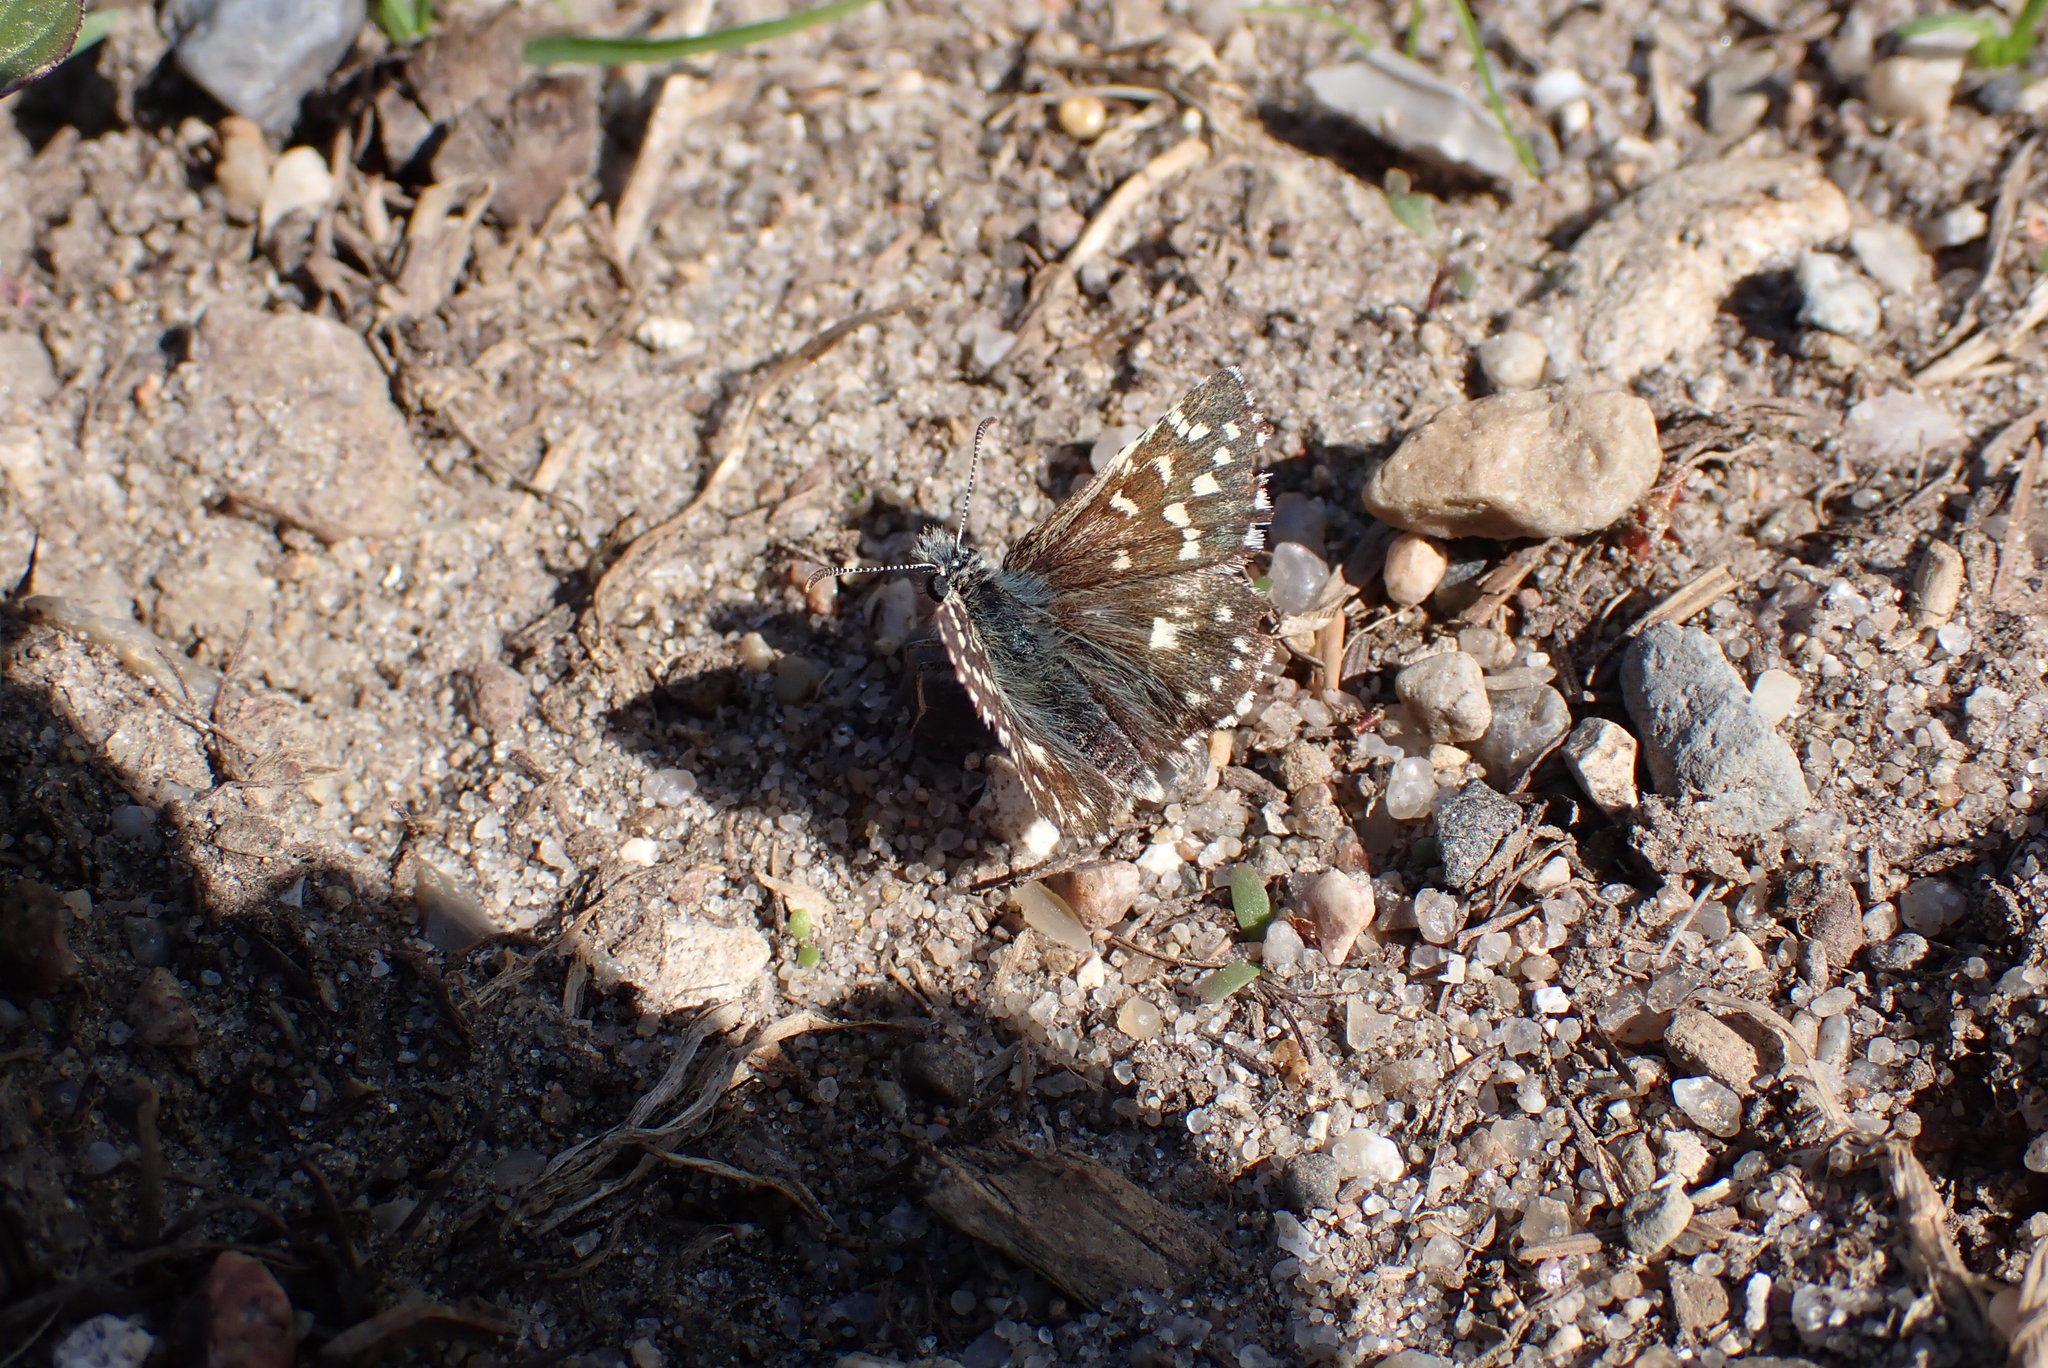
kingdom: Animalia
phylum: Arthropoda
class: Insecta
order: Lepidoptera
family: Hesperiidae
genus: Pyrgus
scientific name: Pyrgus malvae
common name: Grizzled skipper
